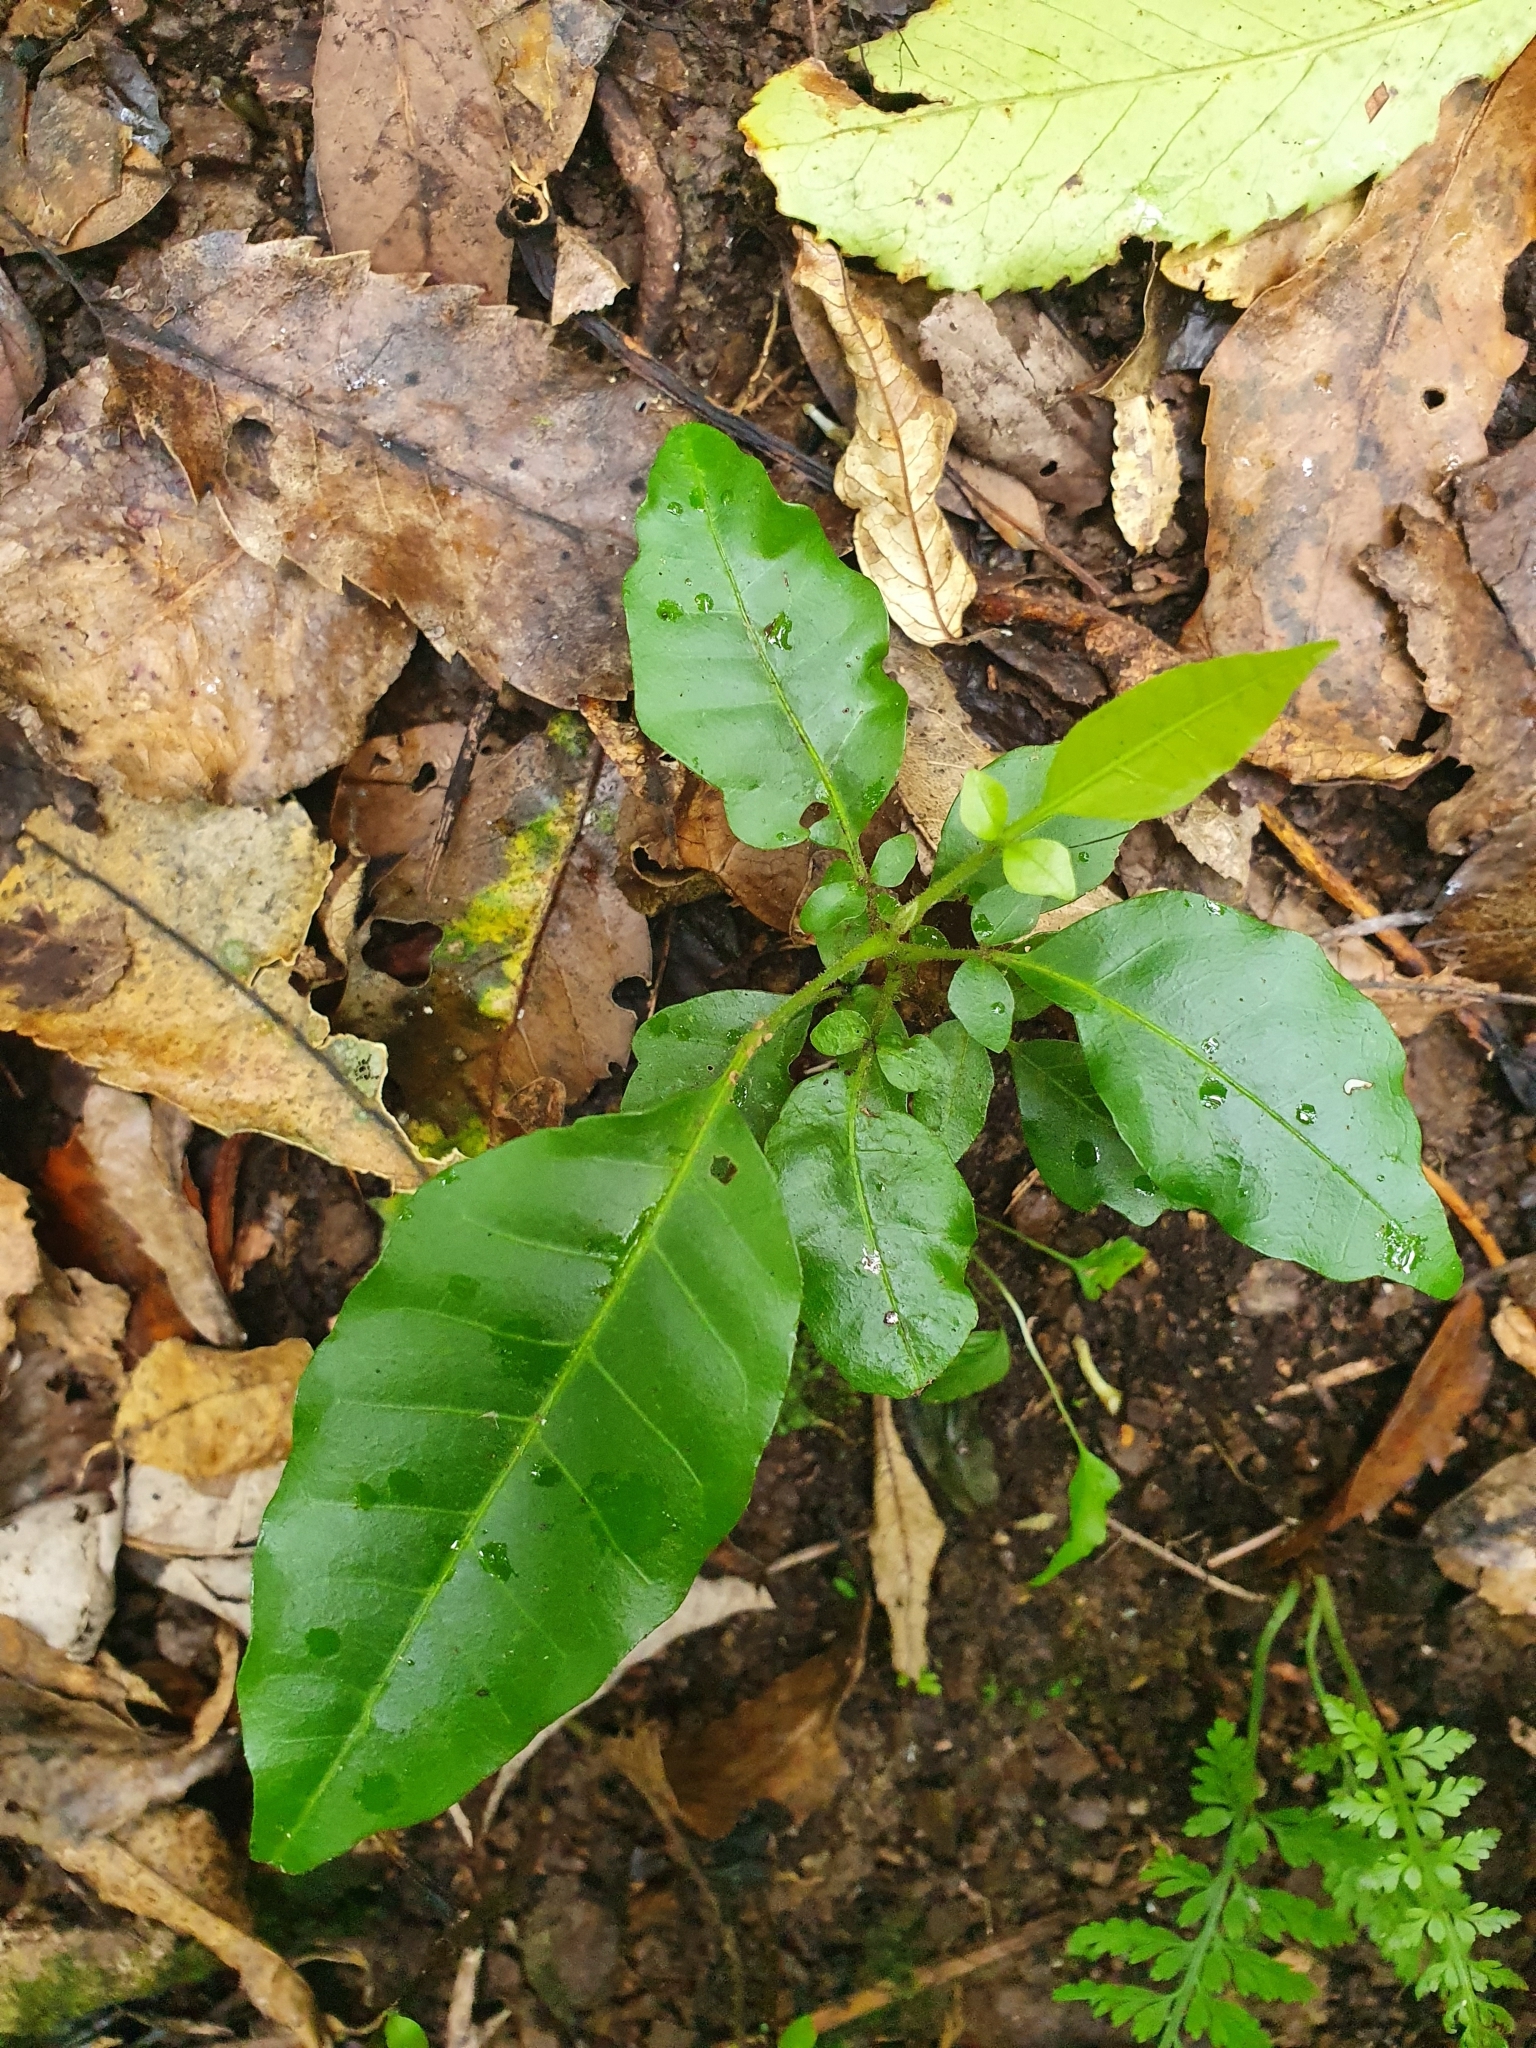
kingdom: Plantae
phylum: Tracheophyta
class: Magnoliopsida
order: Sapindales
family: Meliaceae
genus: Didymocheton
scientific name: Didymocheton spectabilis
